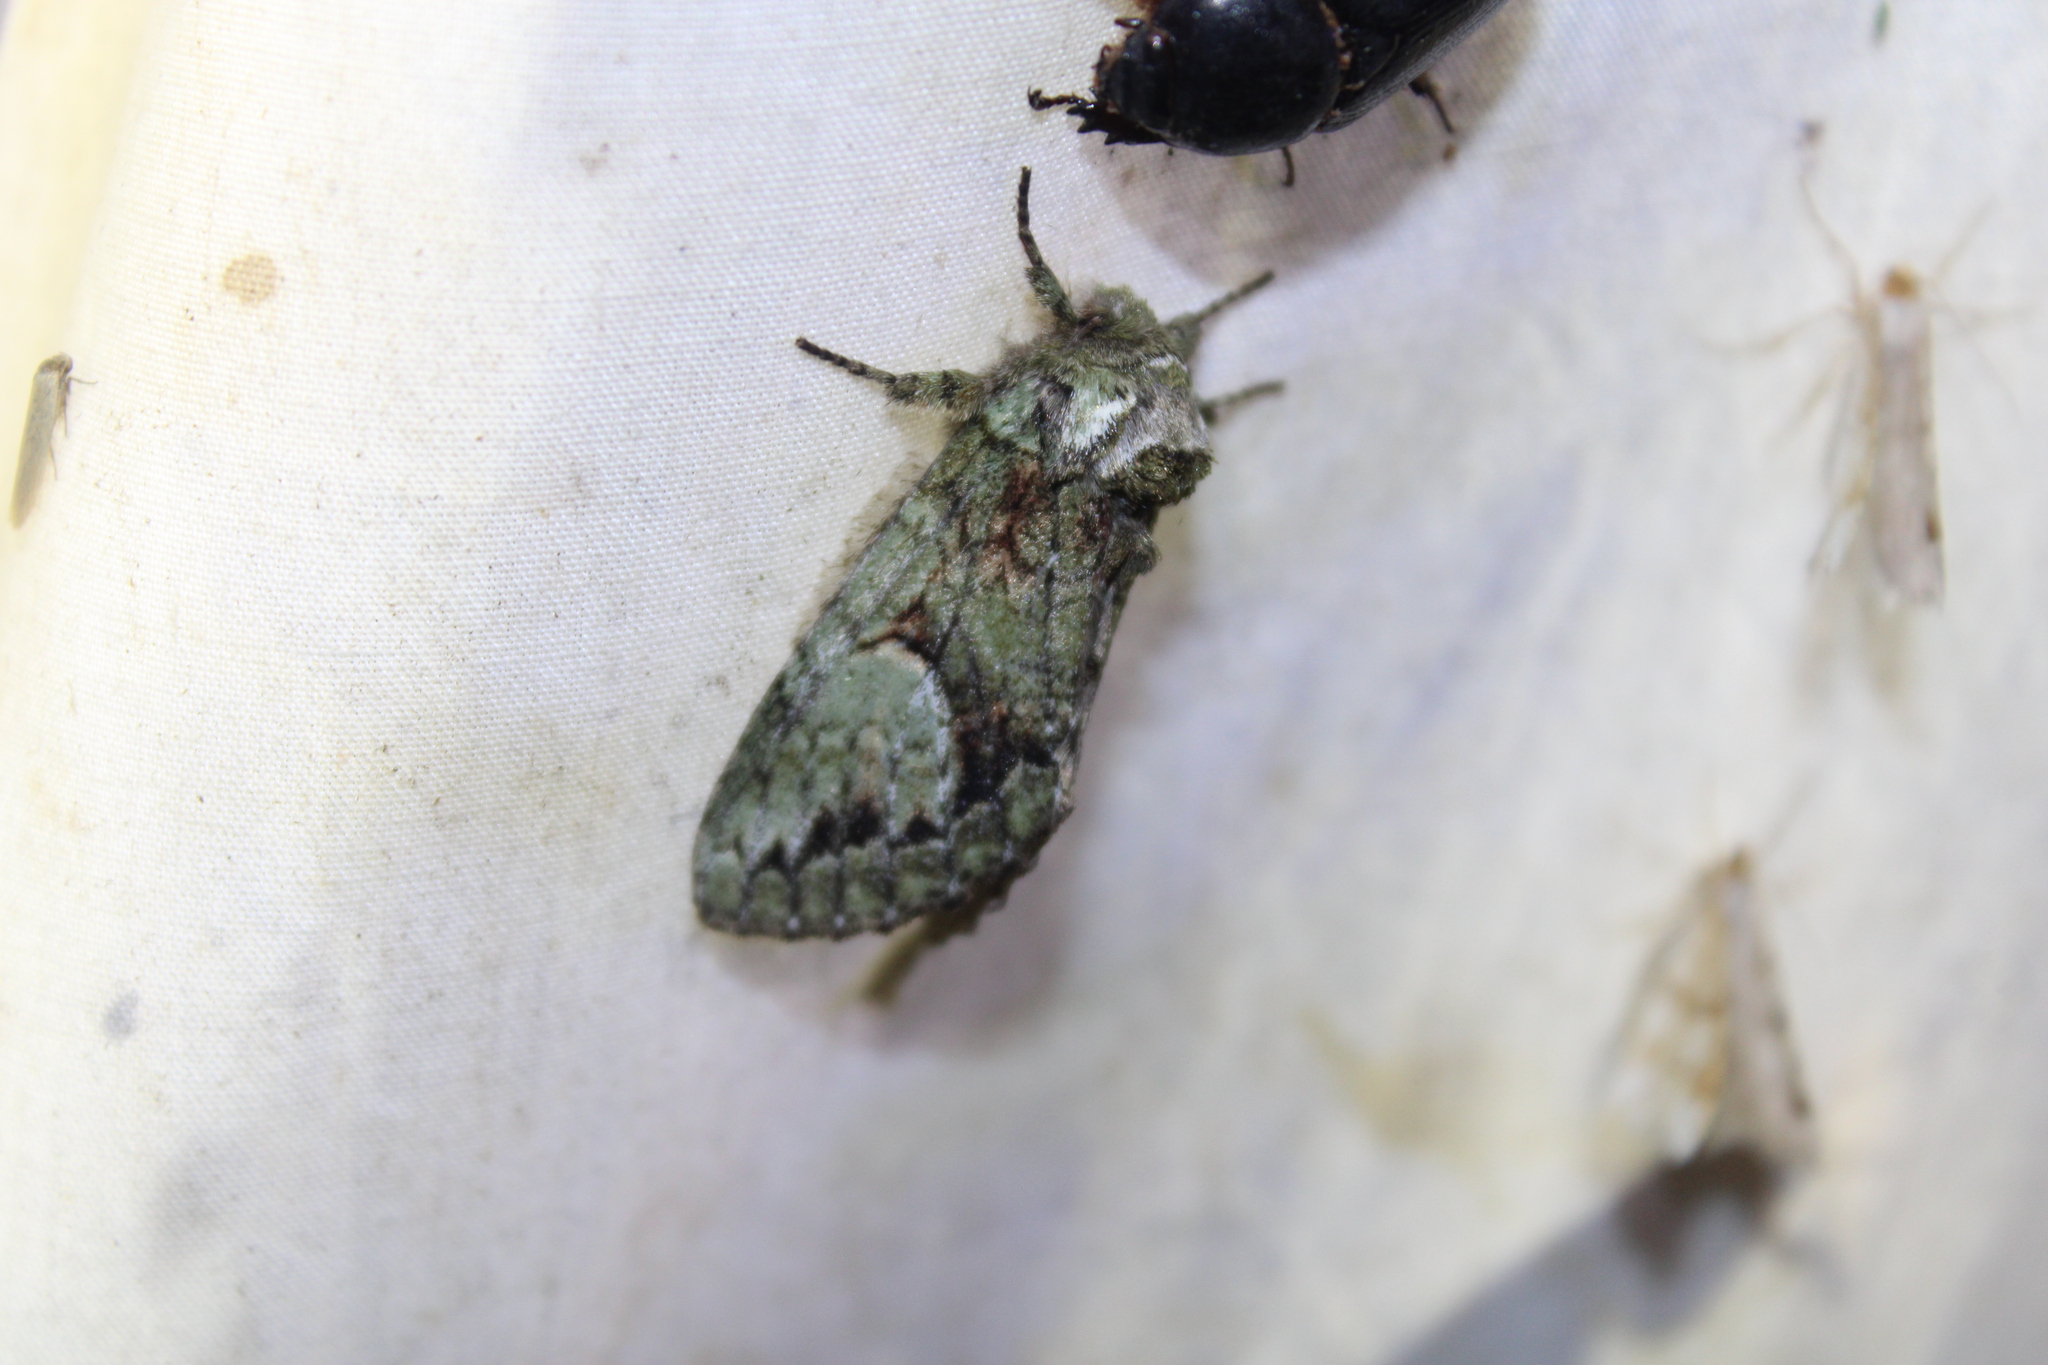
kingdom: Animalia
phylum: Arthropoda
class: Insecta
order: Lepidoptera
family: Notodontidae
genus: Heterocampa
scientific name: Heterocampa
